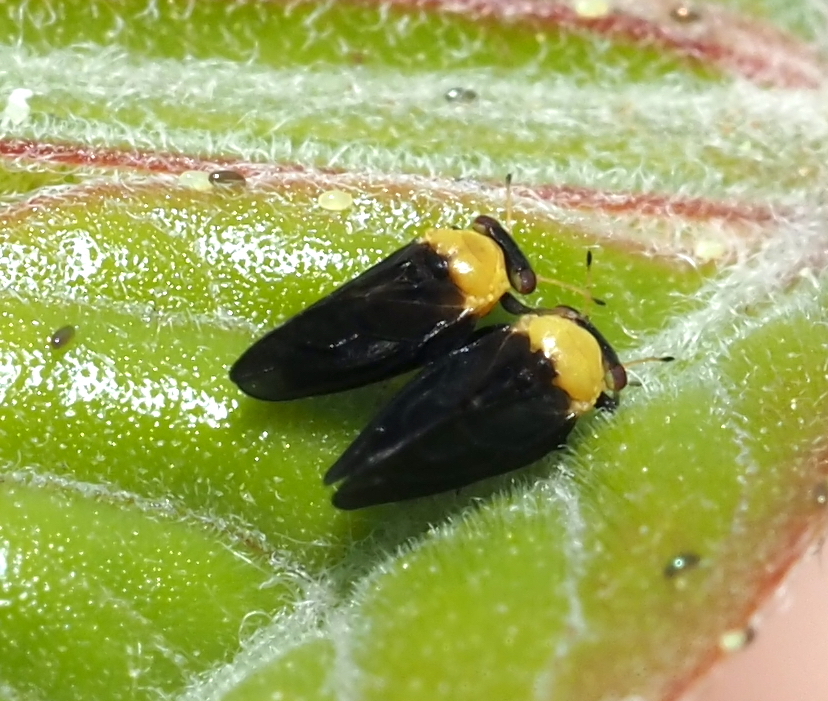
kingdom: Animalia
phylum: Arthropoda
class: Insecta
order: Hemiptera
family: Calophyidae
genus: Calophya
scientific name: Calophya nigripennis
